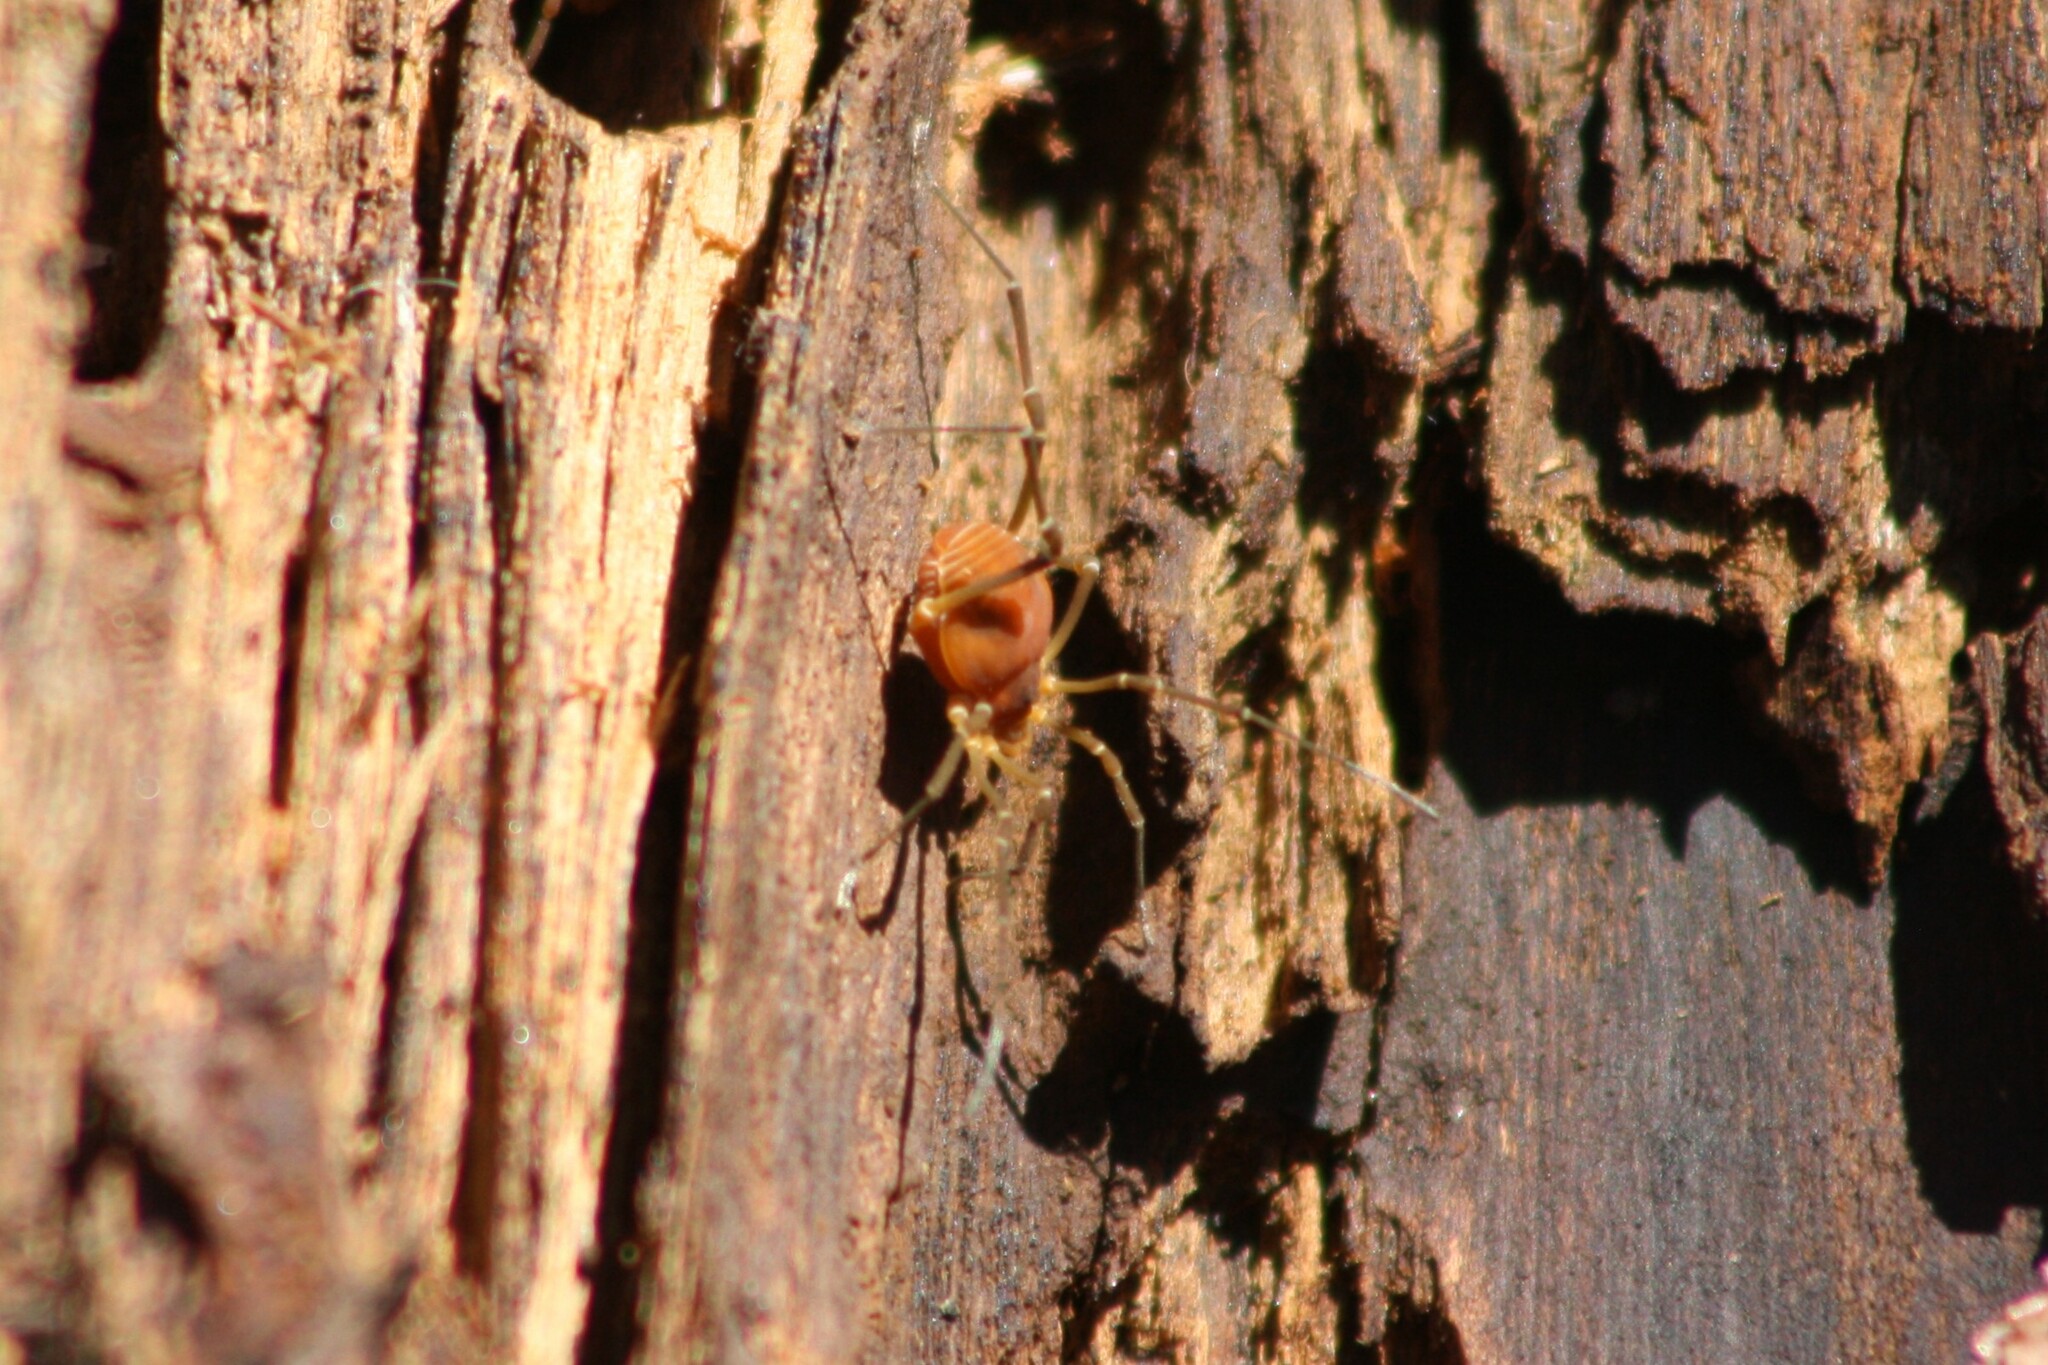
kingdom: Animalia
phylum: Arthropoda
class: Arachnida
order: Opiliones
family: Cosmetidae
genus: Libitioides
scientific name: Libitioides sayi
